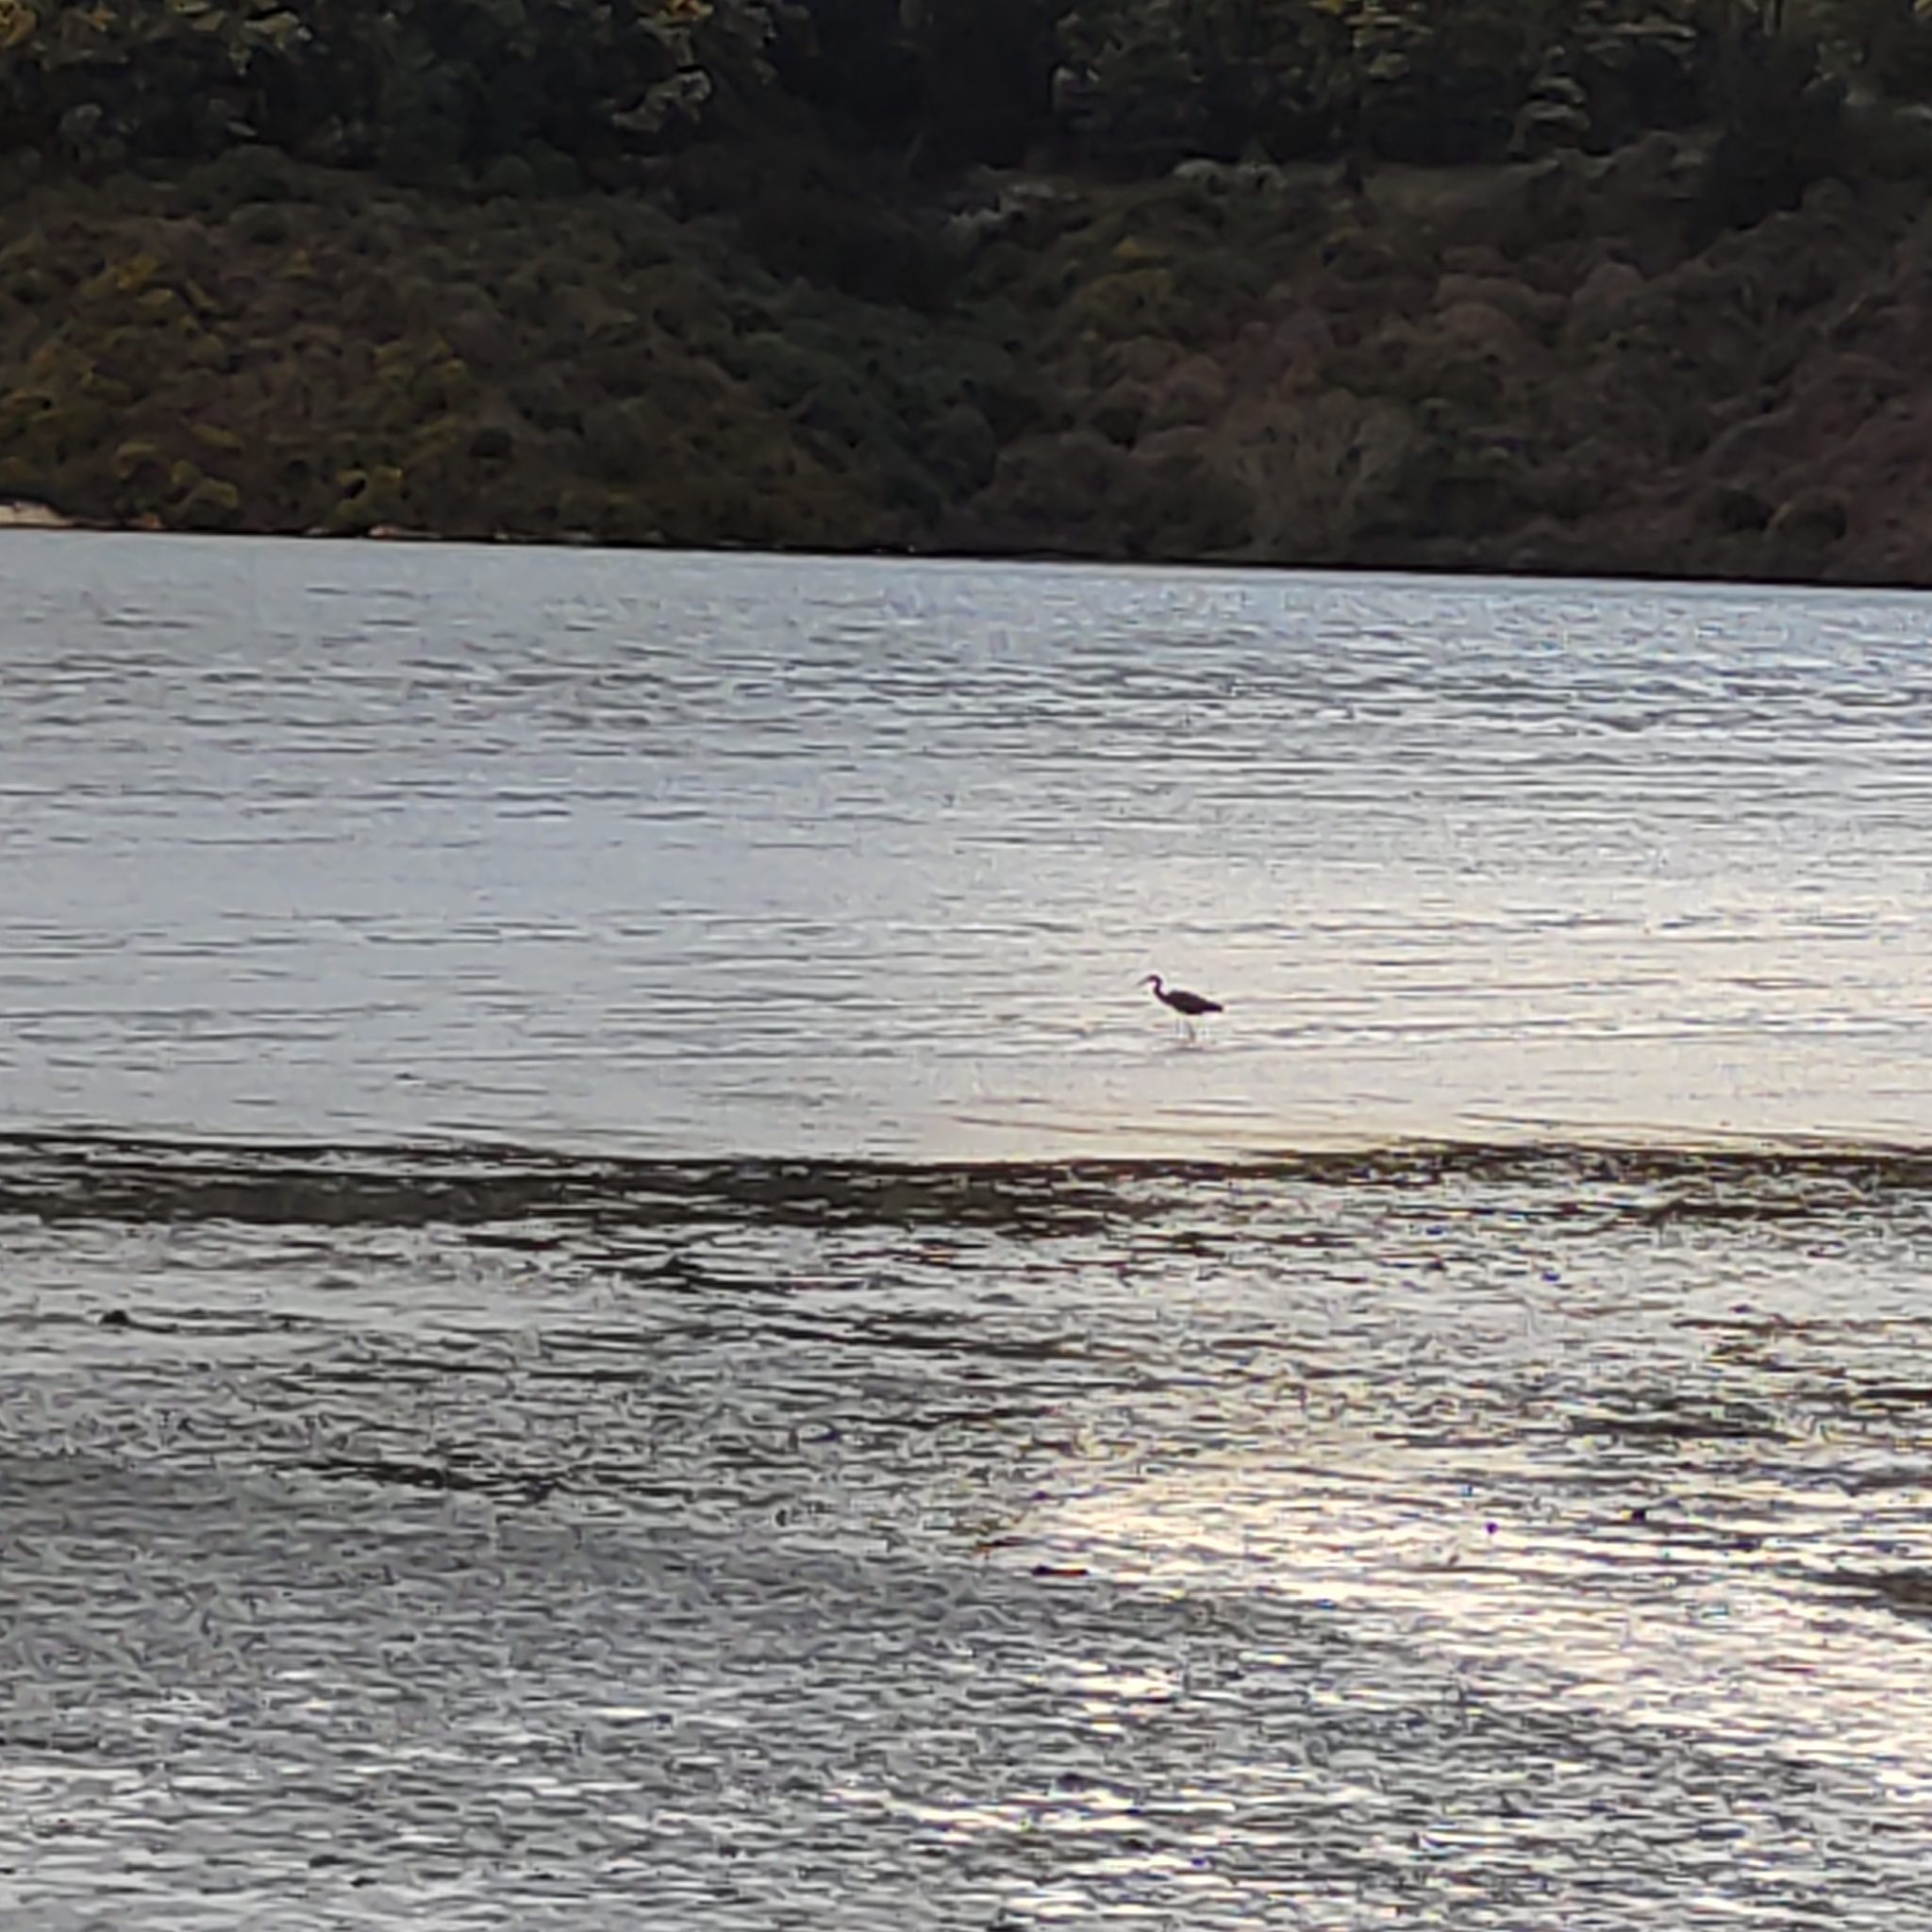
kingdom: Animalia
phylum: Chordata
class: Aves
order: Pelecaniformes
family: Ardeidae
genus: Egretta
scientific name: Egretta novaehollandiae
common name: White-faced heron
